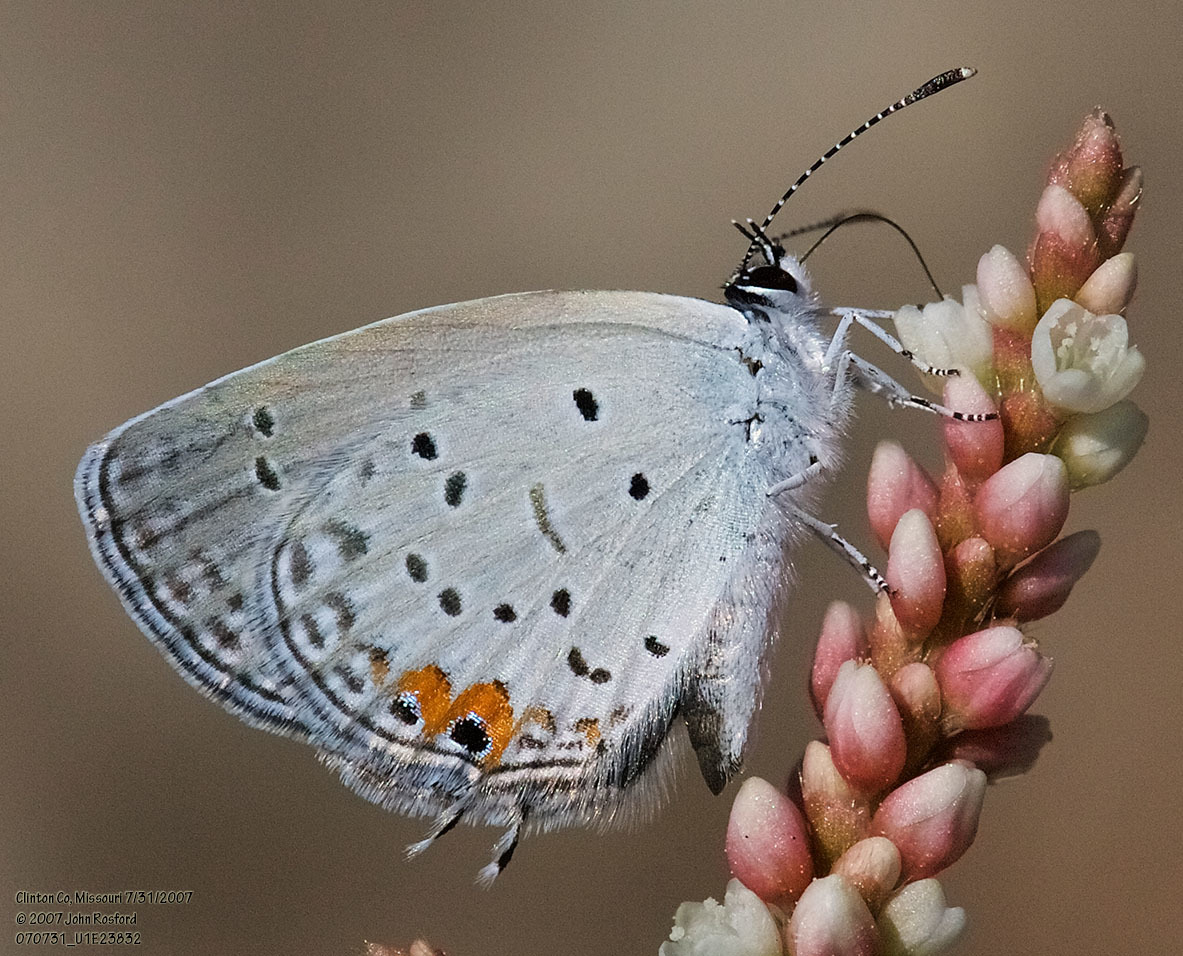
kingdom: Animalia
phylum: Arthropoda
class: Insecta
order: Lepidoptera
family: Lycaenidae
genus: Elkalyce
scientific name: Elkalyce comyntas
